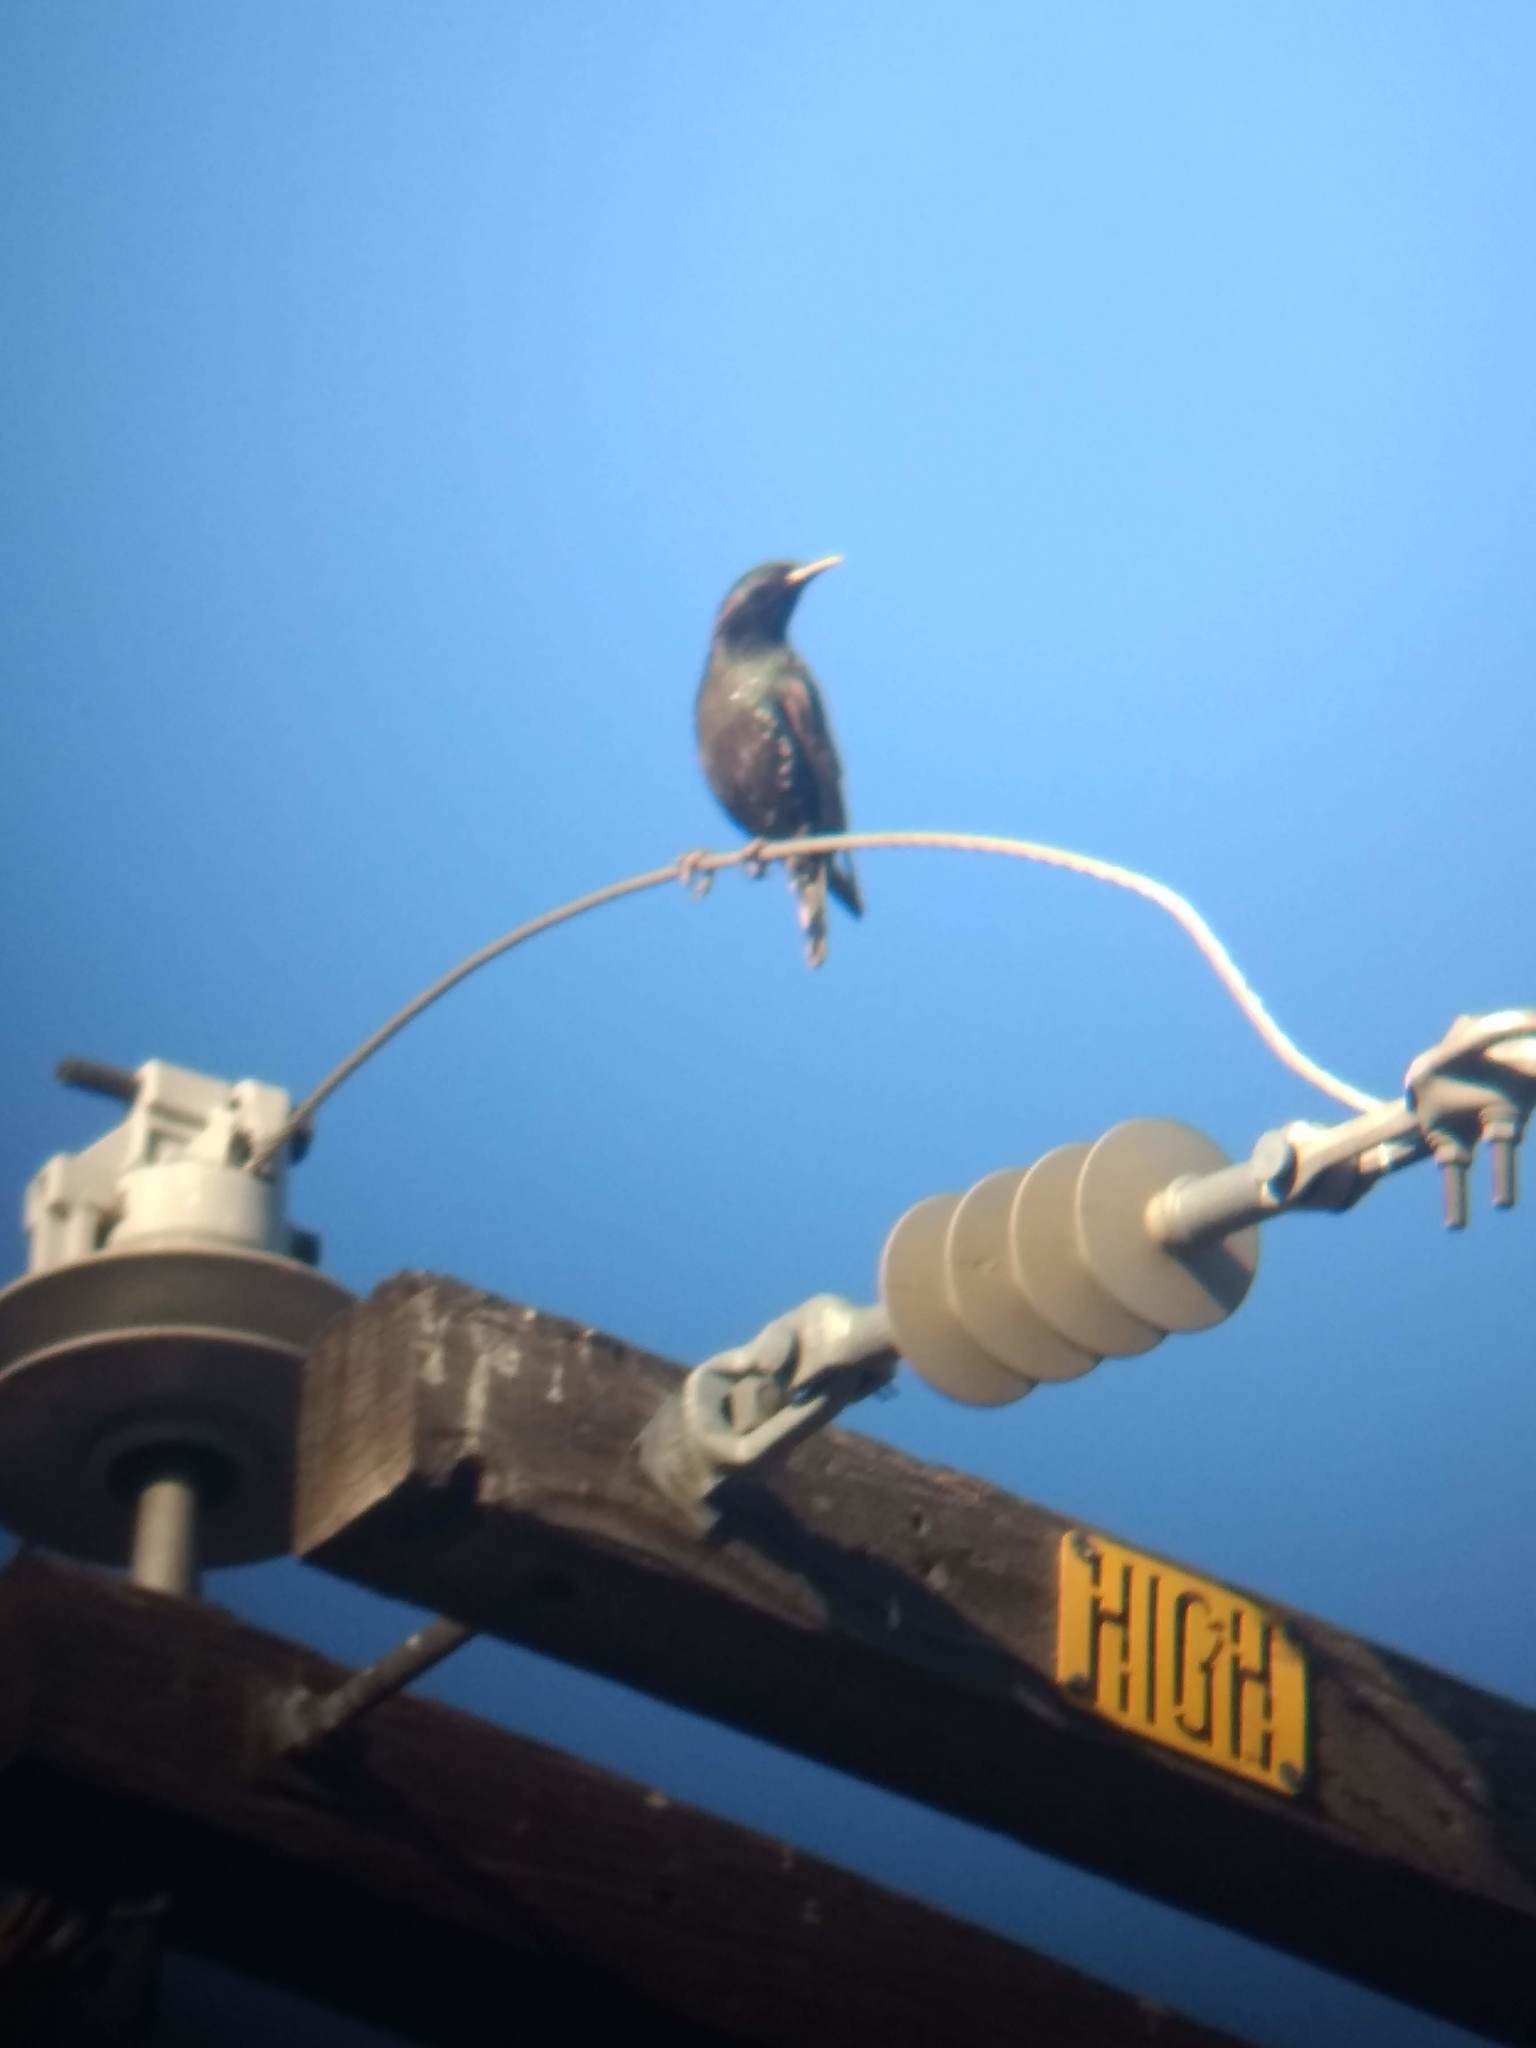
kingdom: Animalia
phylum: Chordata
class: Aves
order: Passeriformes
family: Sturnidae
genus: Sturnus
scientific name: Sturnus vulgaris
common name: Common starling
